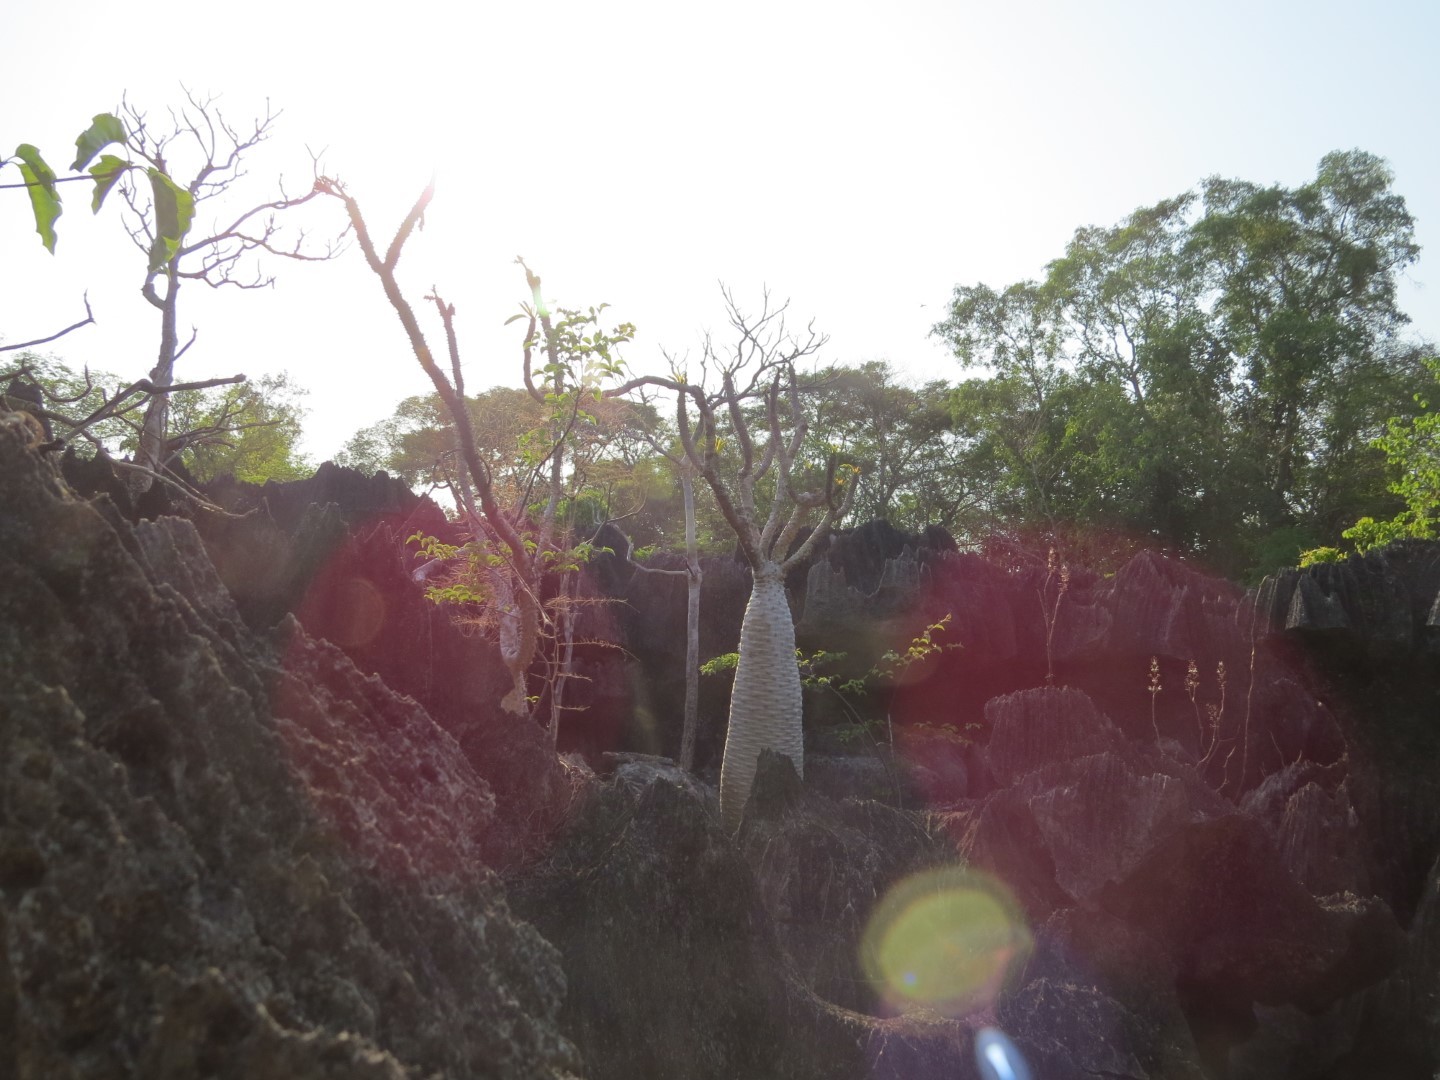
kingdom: Plantae
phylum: Tracheophyta
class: Magnoliopsida
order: Gentianales
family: Apocynaceae
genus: Pachypodium
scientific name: Pachypodium lamerei
